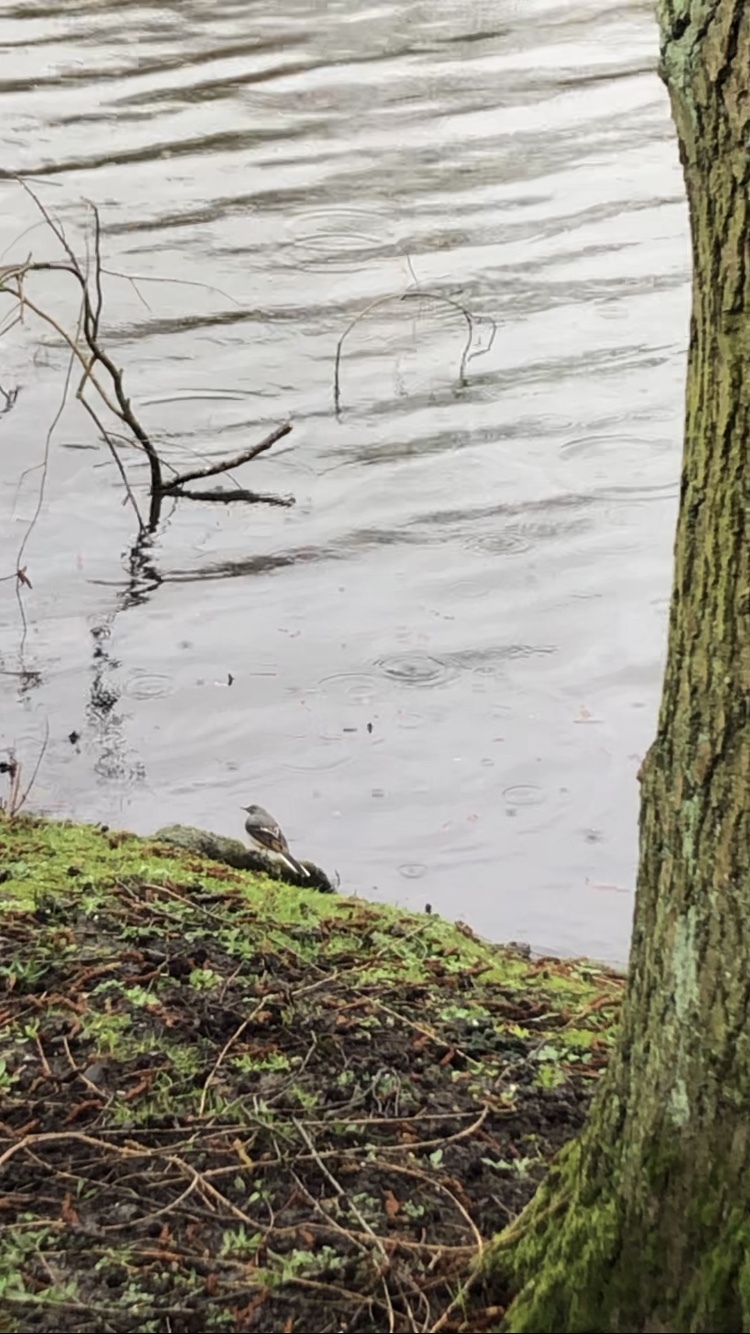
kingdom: Animalia
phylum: Chordata
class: Aves
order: Passeriformes
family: Motacillidae
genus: Motacilla
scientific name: Motacilla cinerea
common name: Grey wagtail
